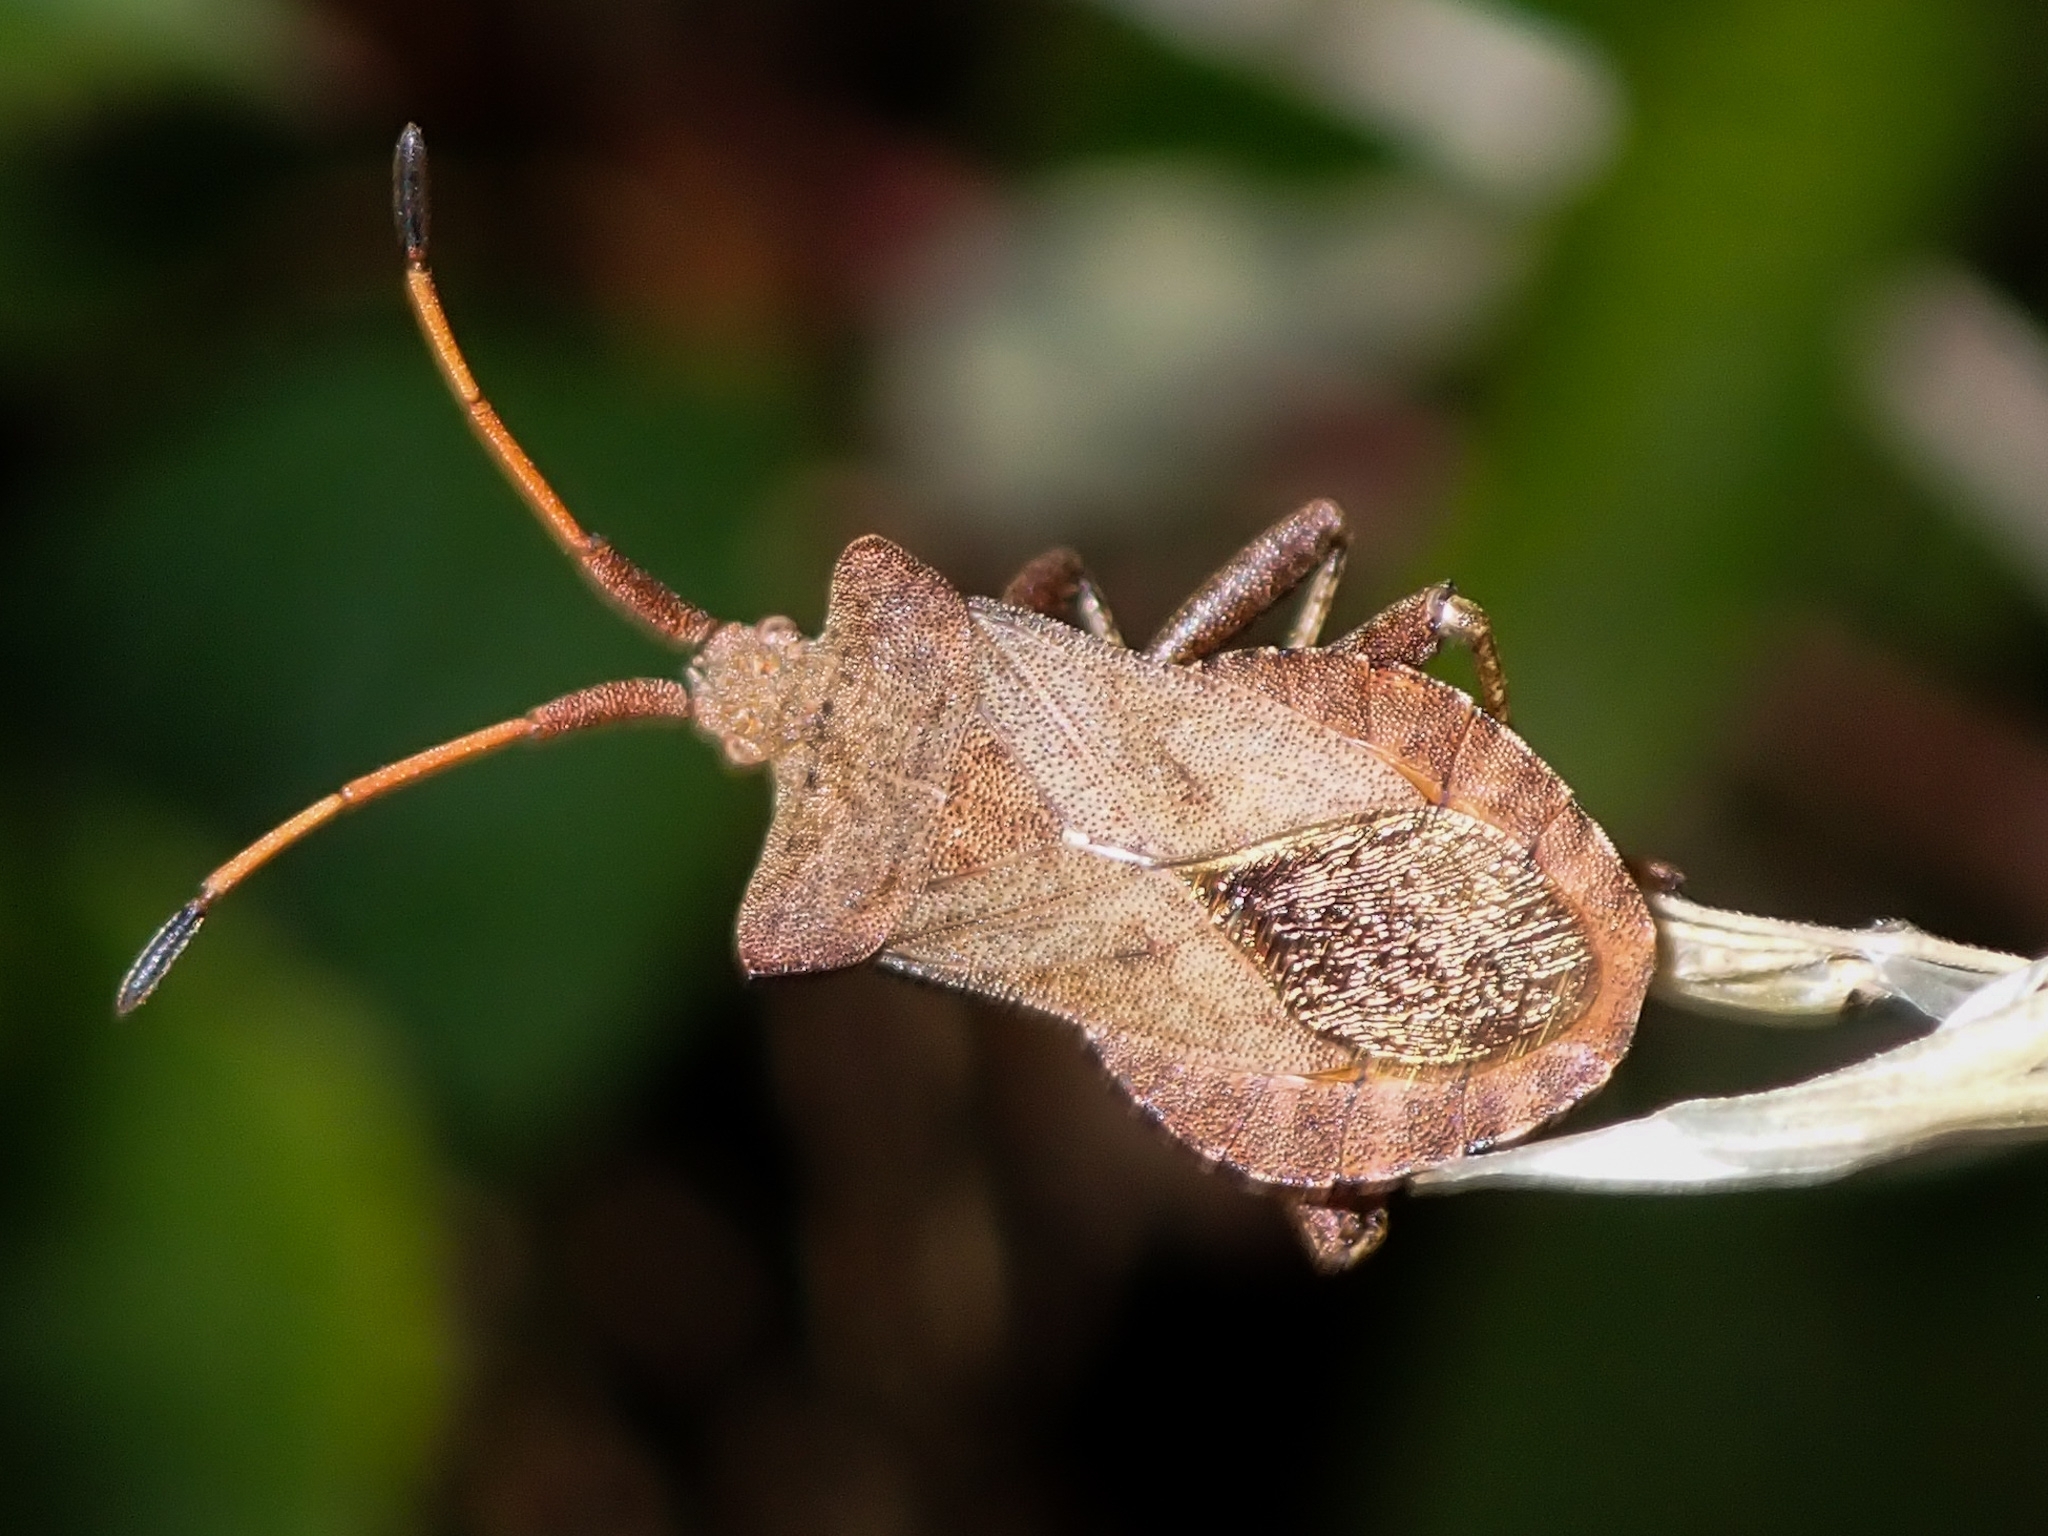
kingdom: Animalia
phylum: Arthropoda
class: Insecta
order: Hemiptera
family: Coreidae
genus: Coreus
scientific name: Coreus marginatus
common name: Dock bug
